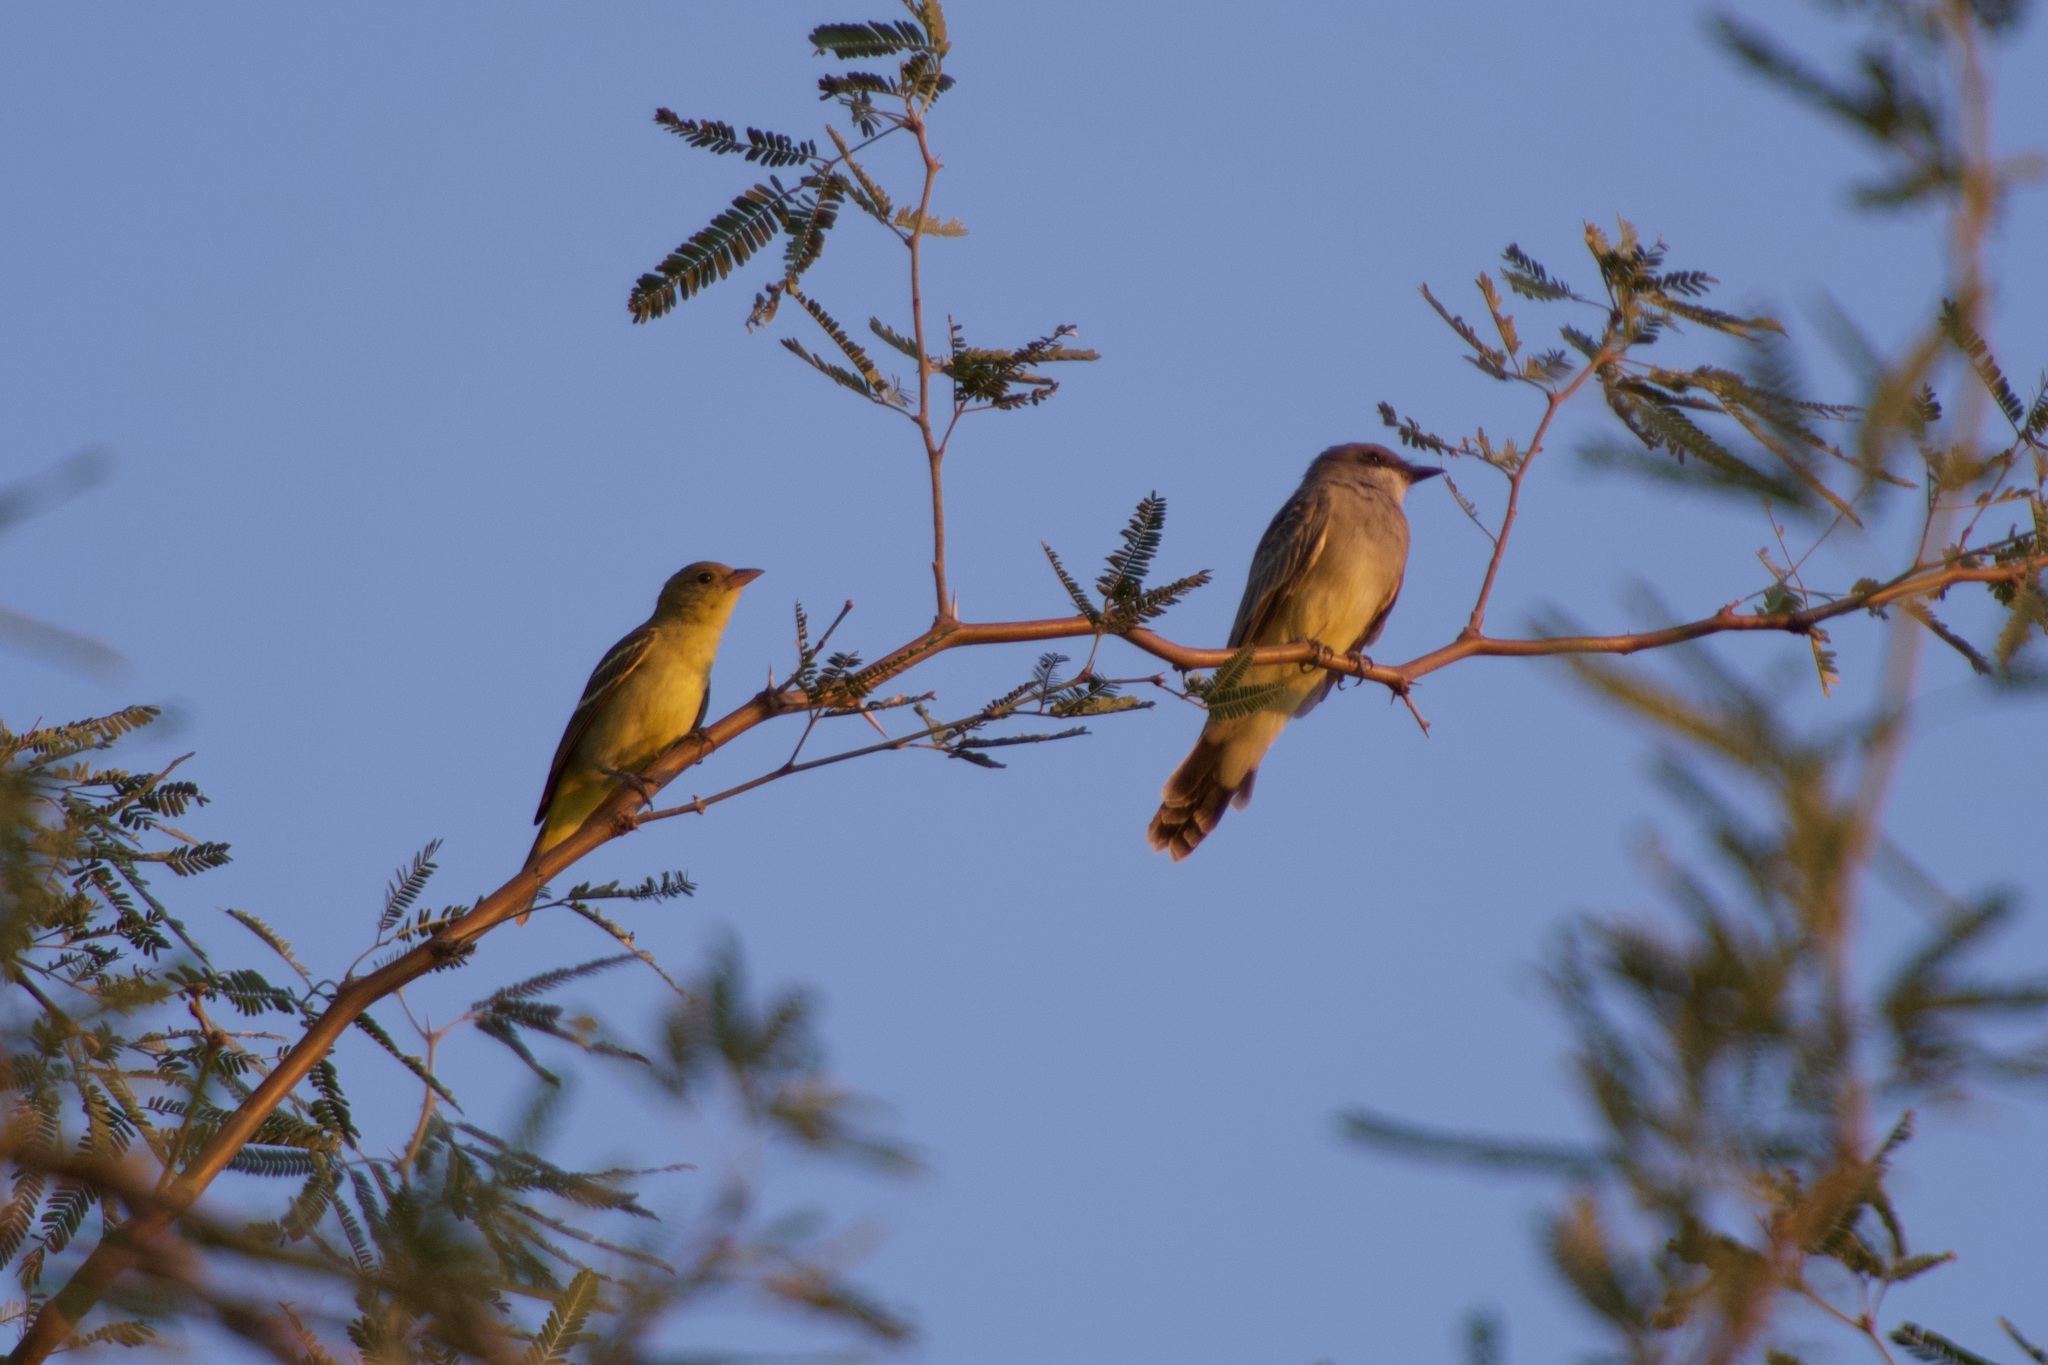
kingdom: Animalia
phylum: Chordata
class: Aves
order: Passeriformes
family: Tyrannidae
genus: Tyrannus
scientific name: Tyrannus vociferans
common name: Cassin's kingbird
